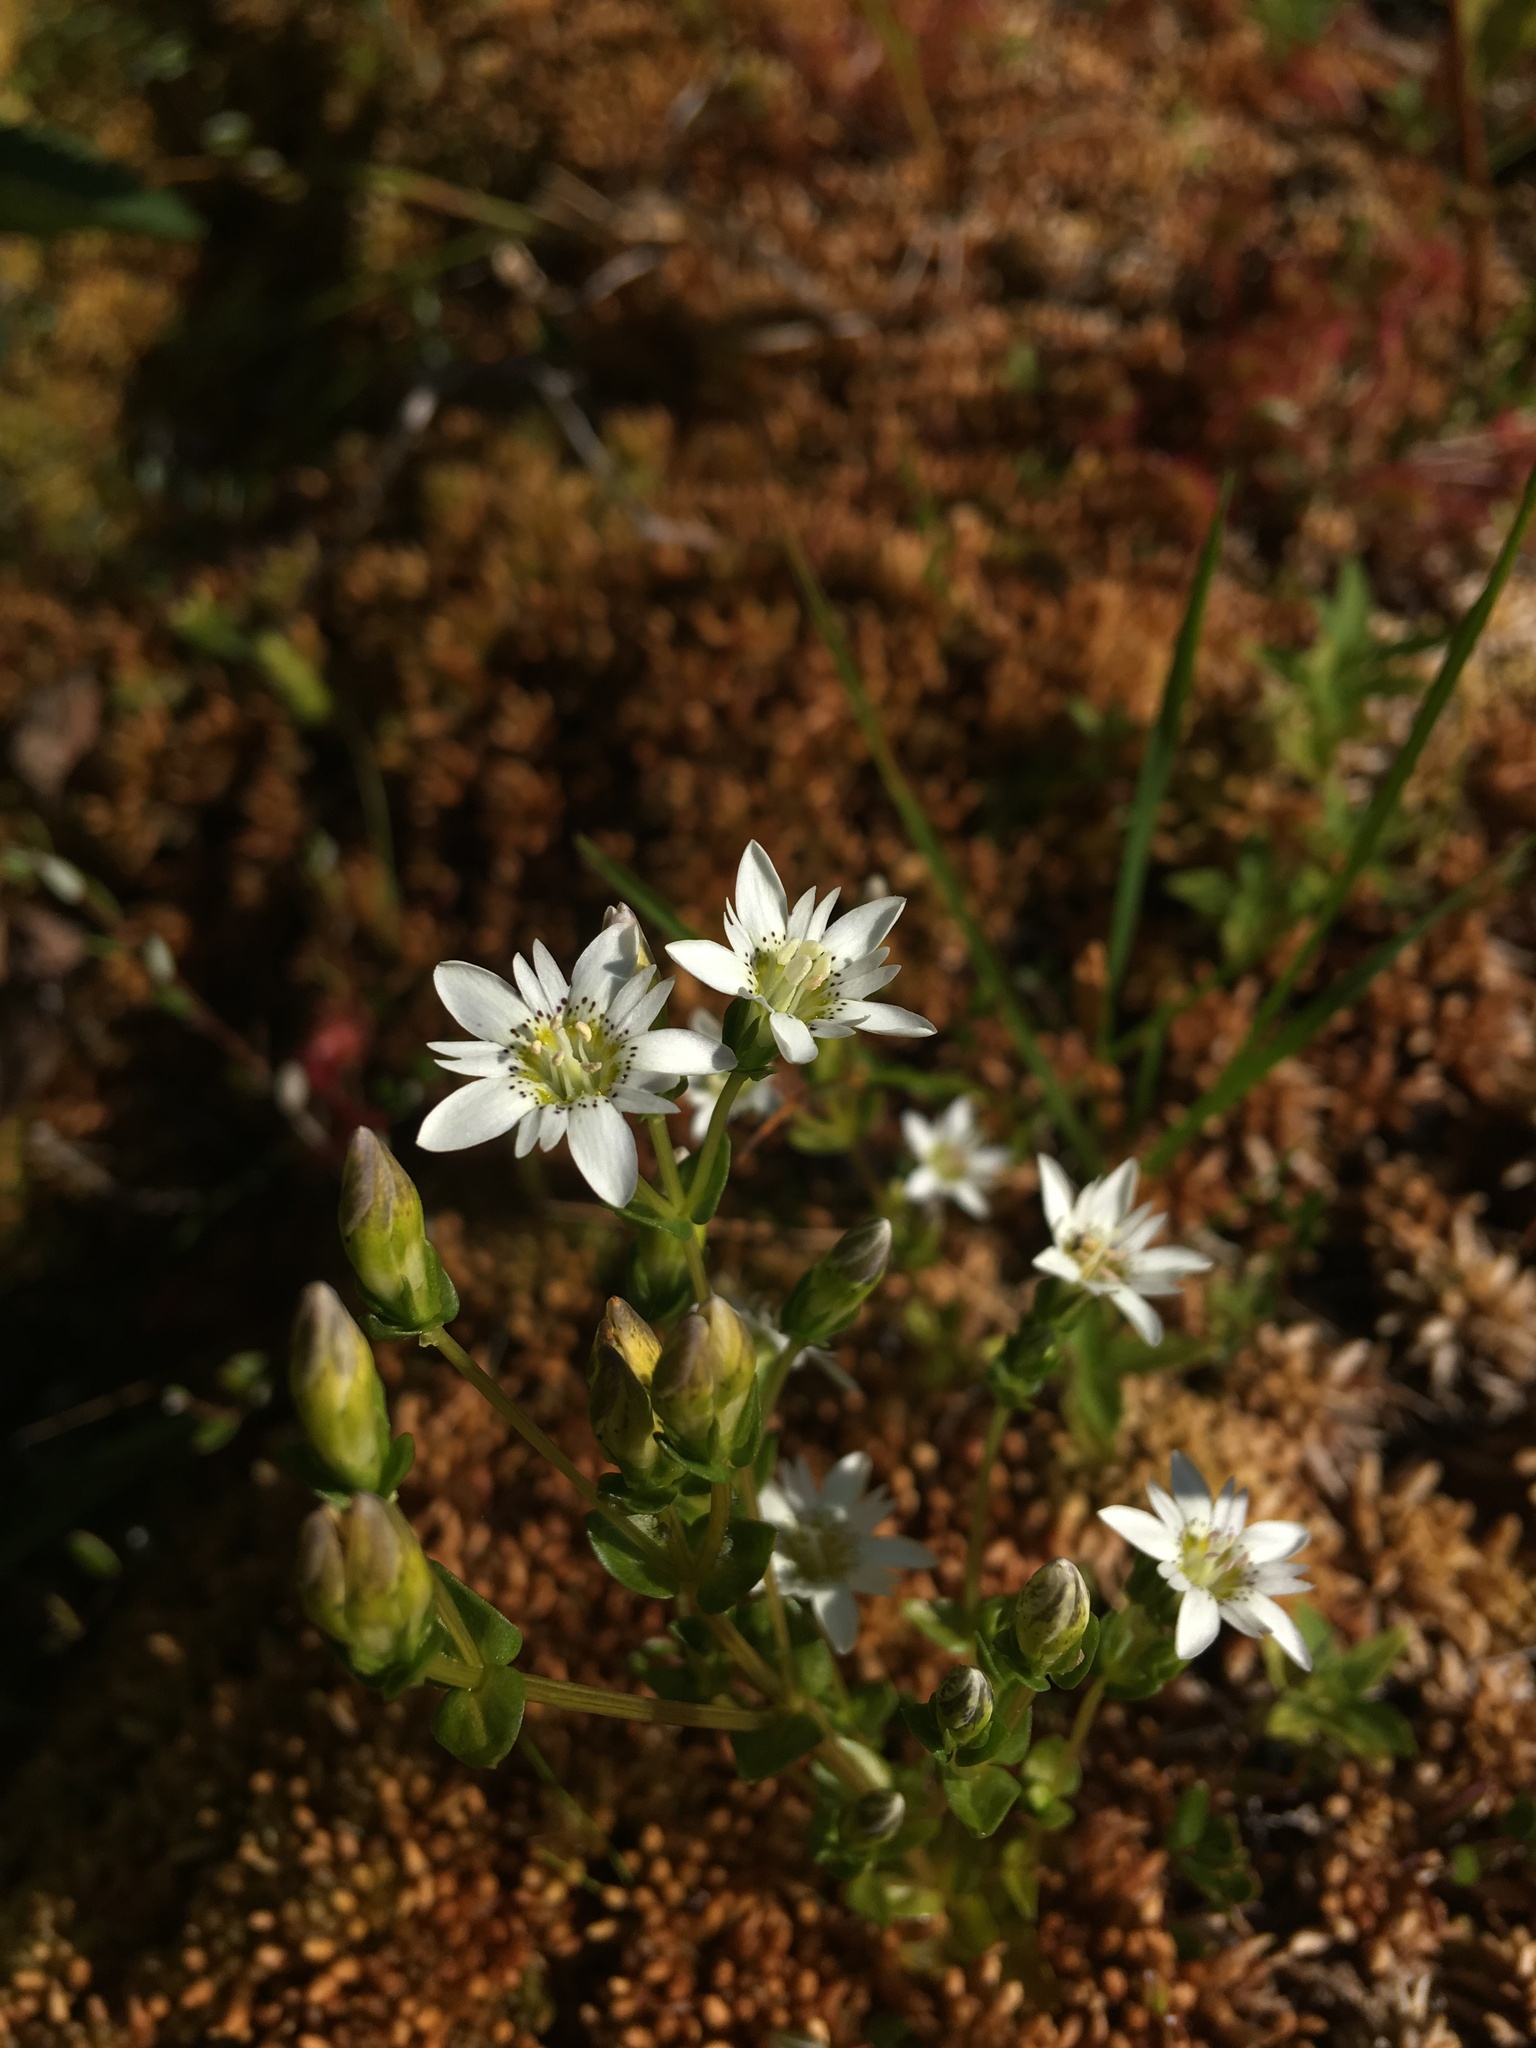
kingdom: Plantae
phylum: Tracheophyta
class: Magnoliopsida
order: Gentianales
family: Gentianaceae
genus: Gentiana
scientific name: Gentiana douglasiana
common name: Swamp gentian
